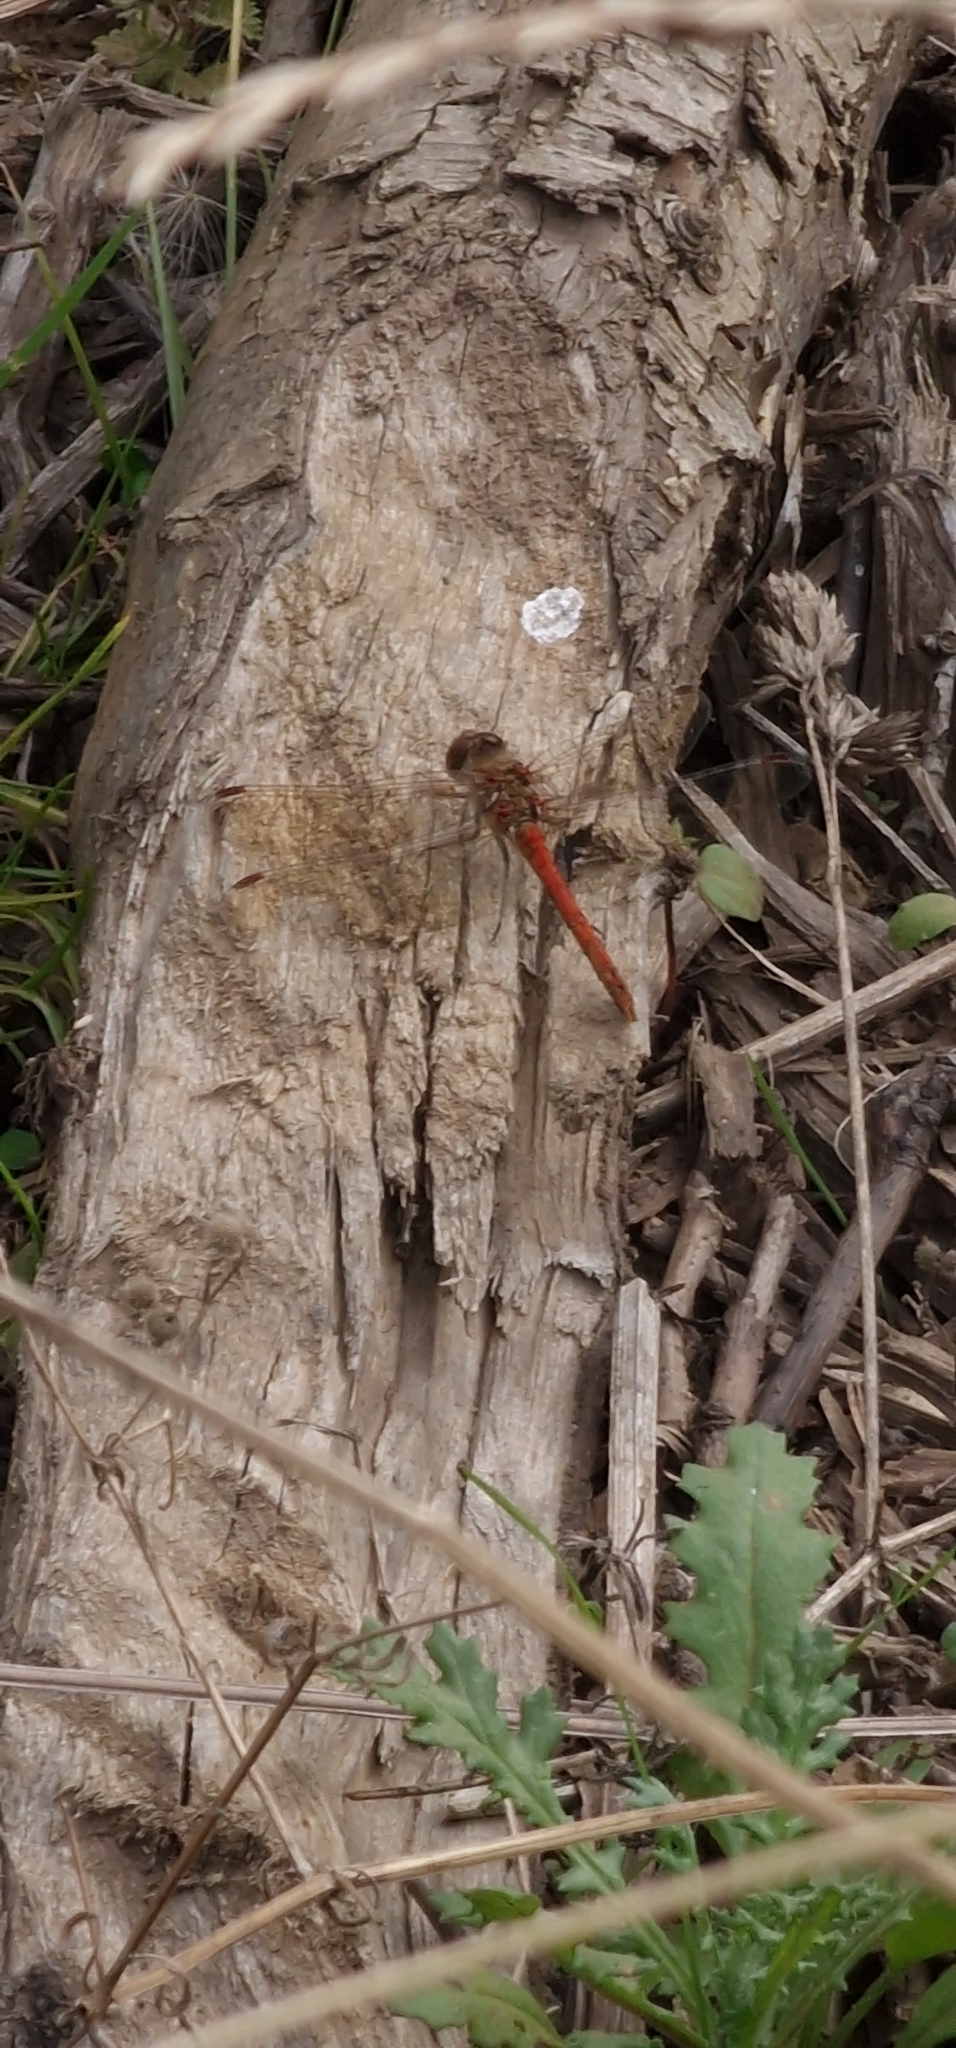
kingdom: Animalia
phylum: Arthropoda
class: Insecta
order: Odonata
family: Libellulidae
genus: Sympetrum
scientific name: Sympetrum striolatum
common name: Common darter
